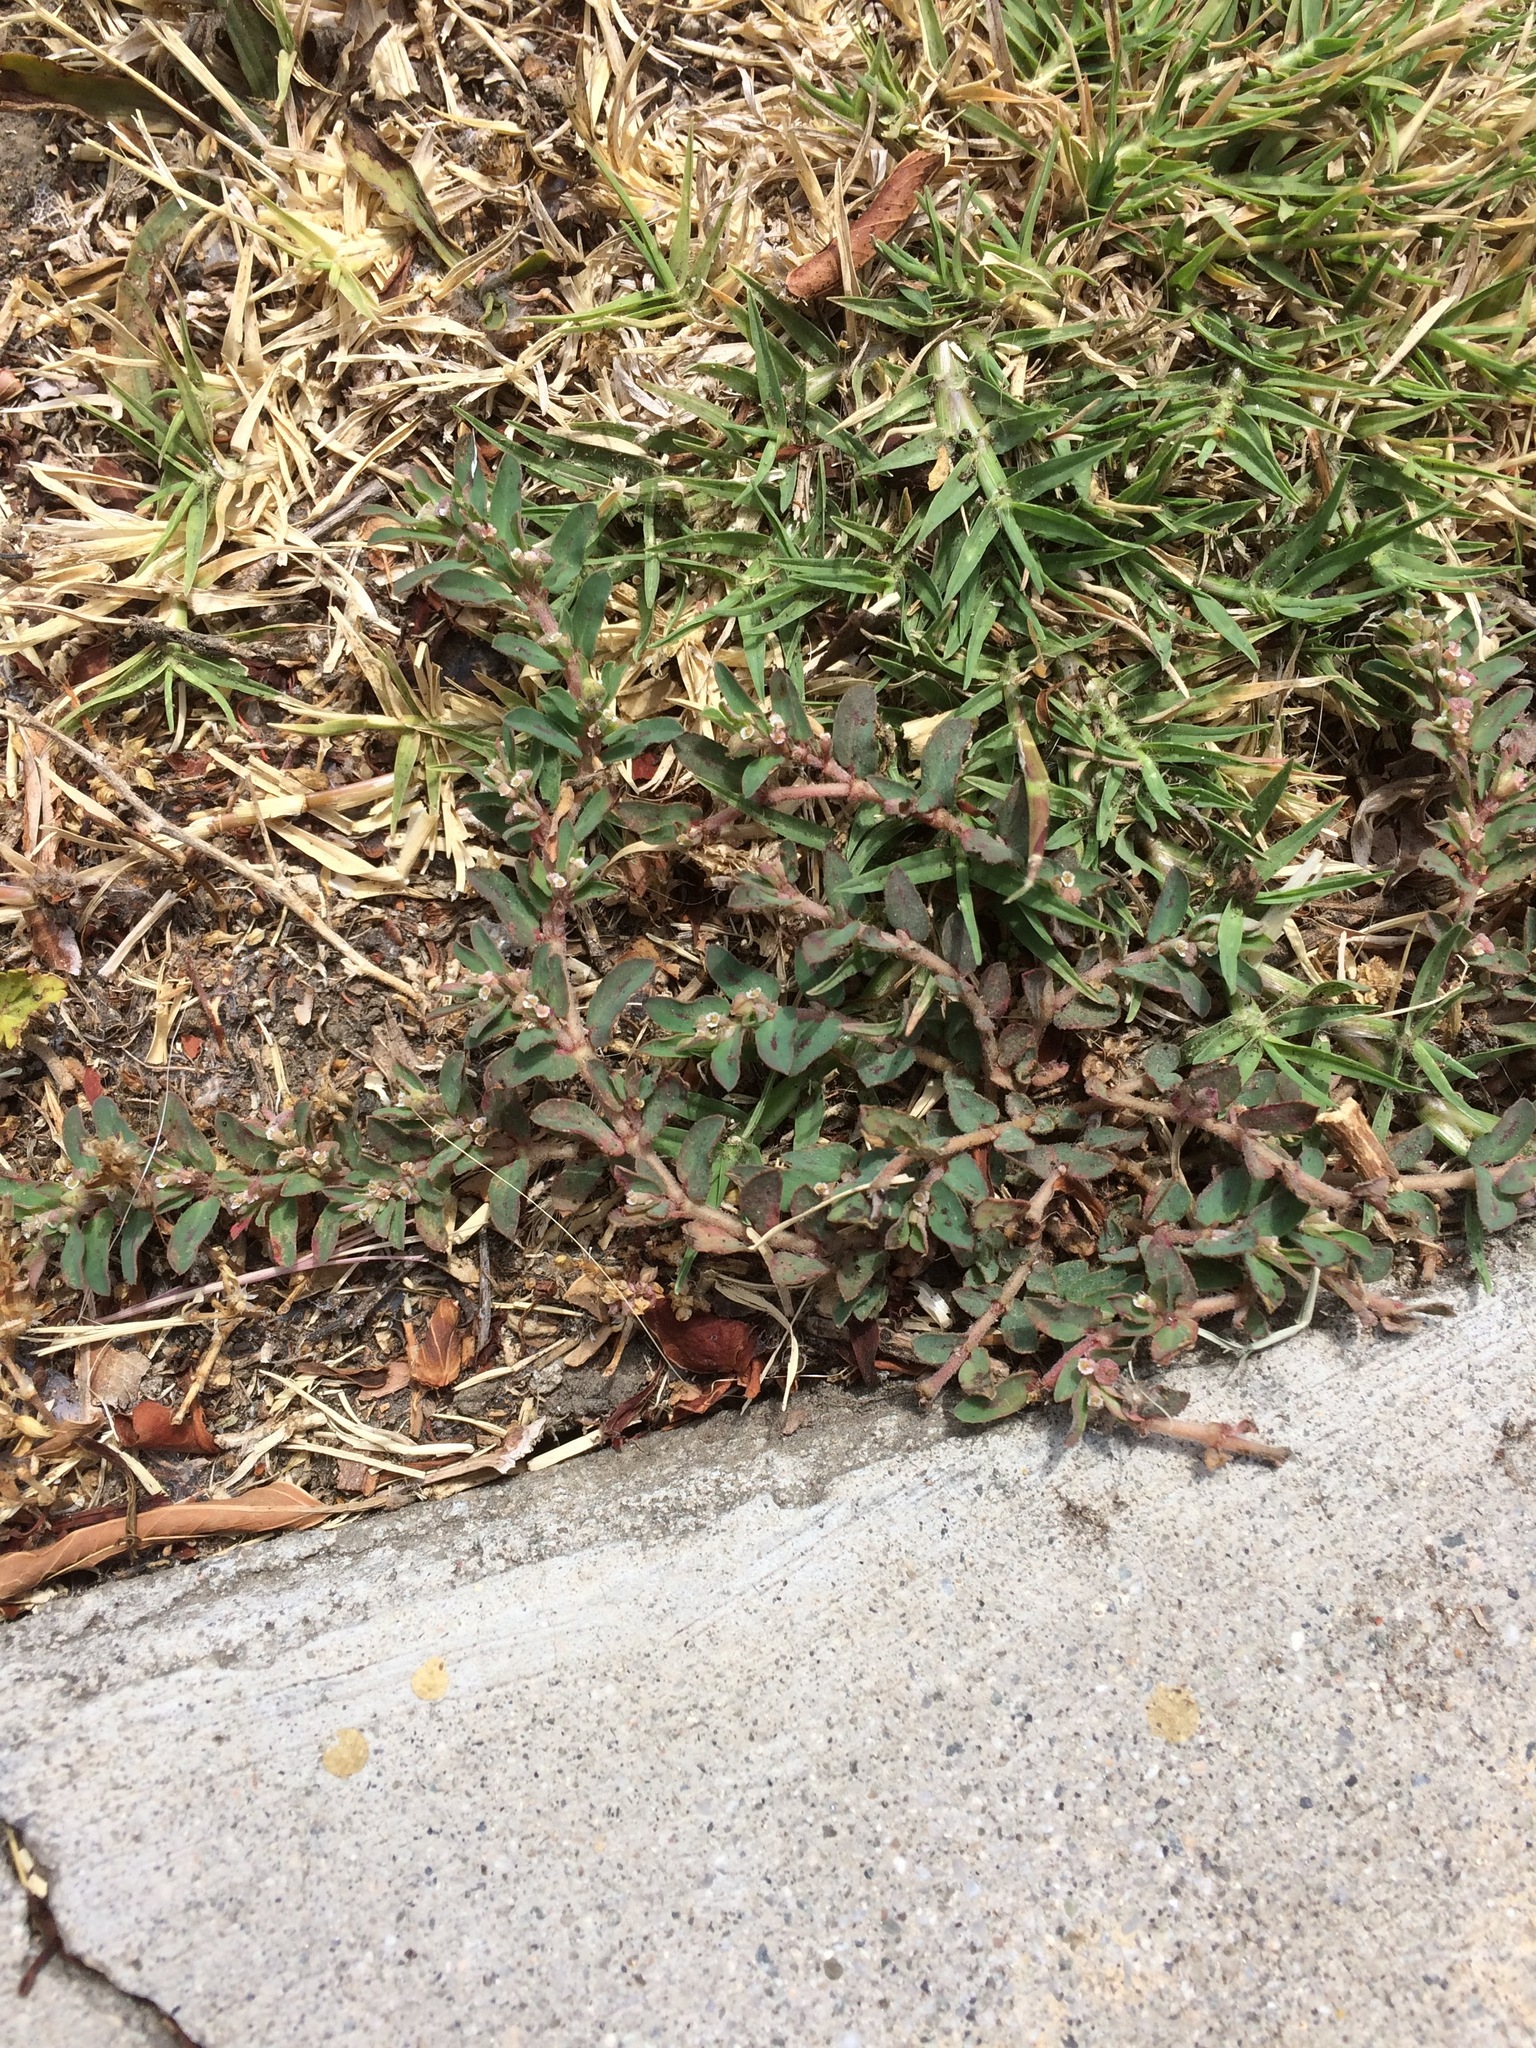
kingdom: Plantae
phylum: Tracheophyta
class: Magnoliopsida
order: Malpighiales
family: Euphorbiaceae
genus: Euphorbia
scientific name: Euphorbia maculata
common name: Spotted spurge
